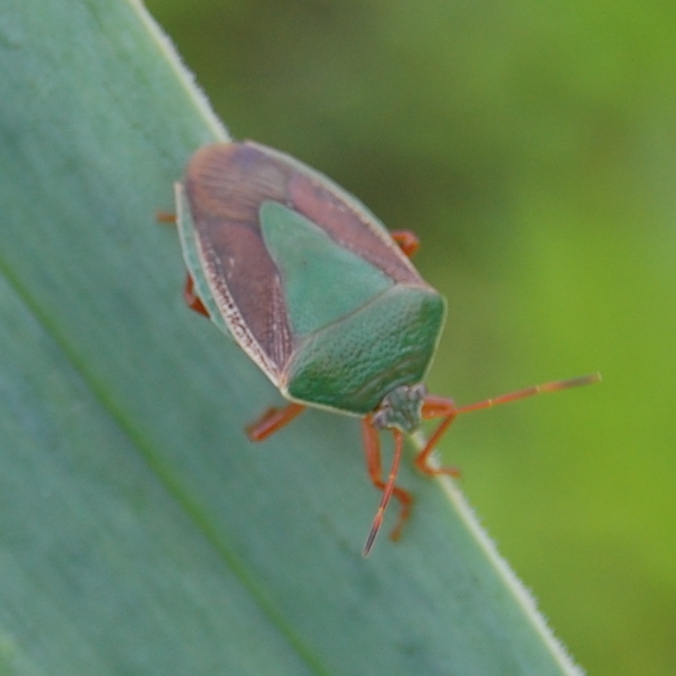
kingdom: Animalia
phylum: Arthropoda
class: Insecta
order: Hemiptera
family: Pentatomidae
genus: Edessa
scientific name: Edessa meditabunda
